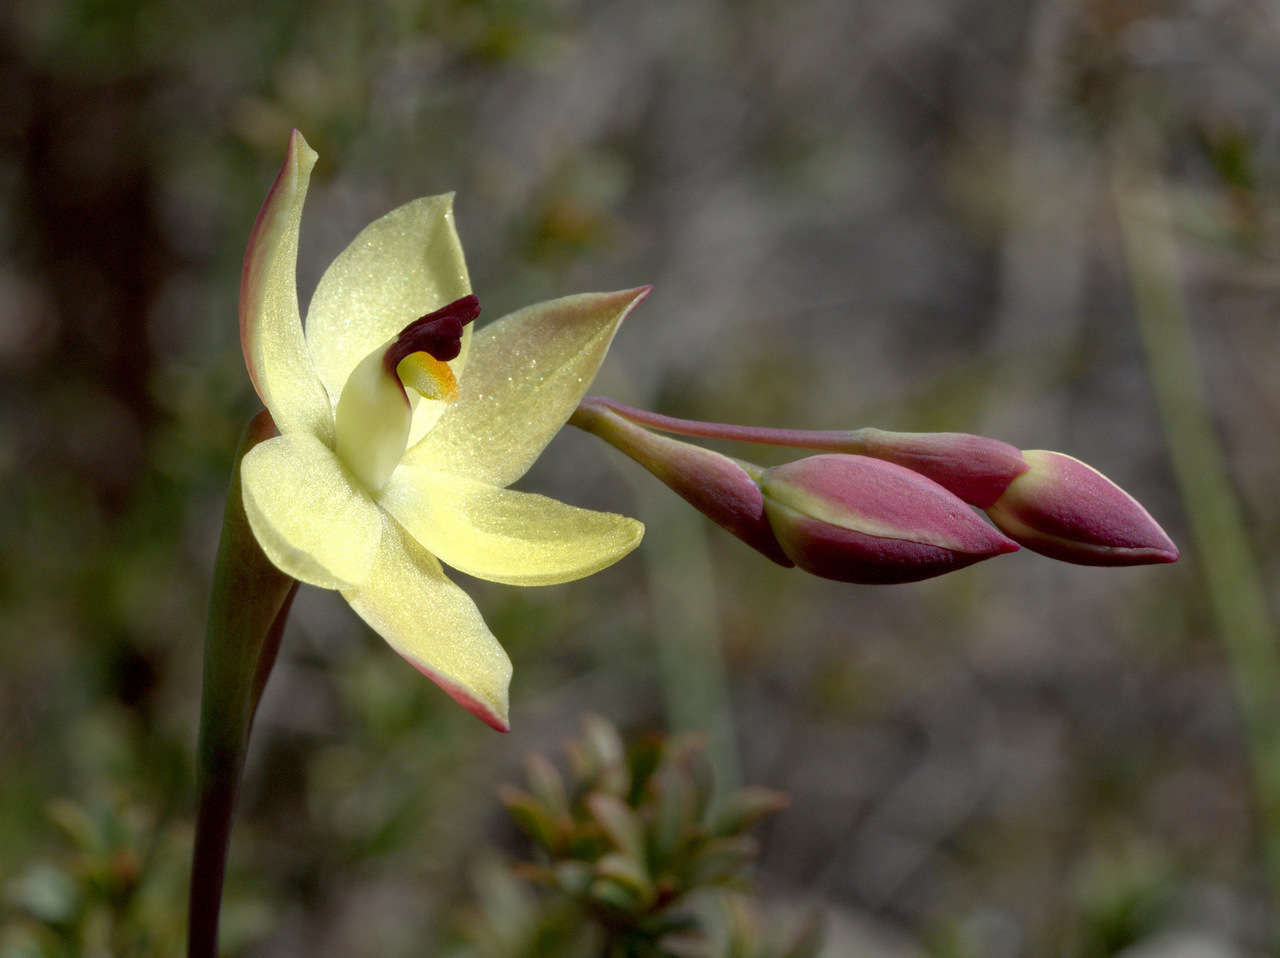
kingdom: Plantae
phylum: Tracheophyta
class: Liliopsida
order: Asparagales
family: Orchidaceae
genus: Thelymitra
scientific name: Thelymitra antennifera
